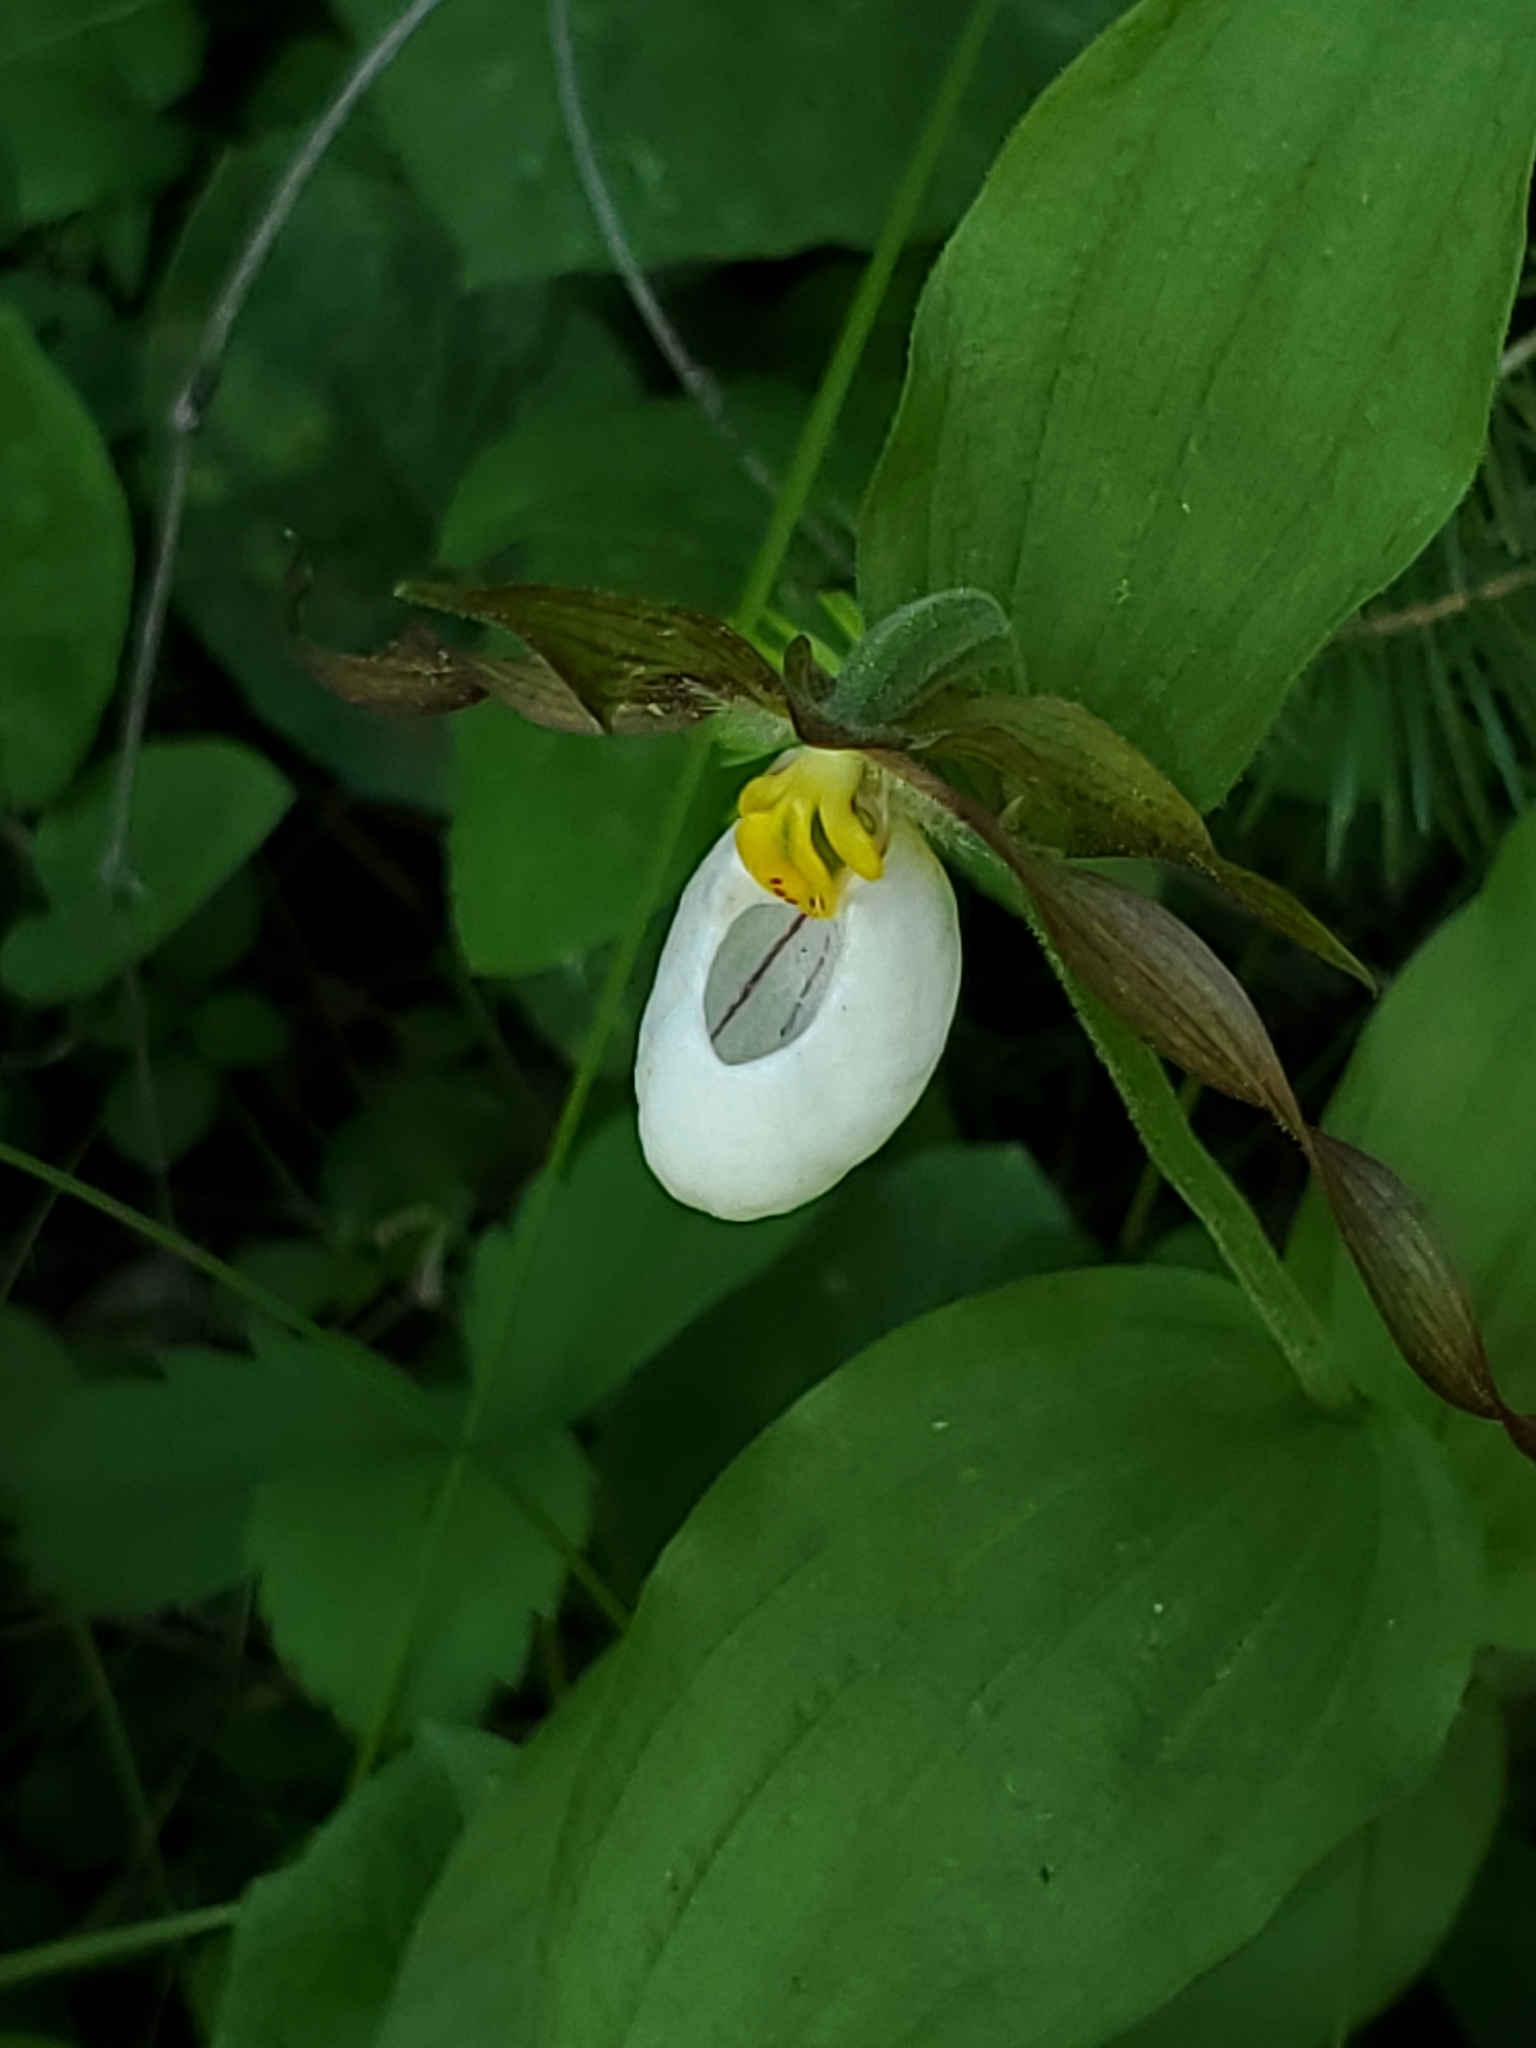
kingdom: Plantae
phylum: Tracheophyta
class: Liliopsida
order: Asparagales
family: Orchidaceae
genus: Cypripedium
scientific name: Cypripedium montanum
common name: Mountain lady's-slipper
